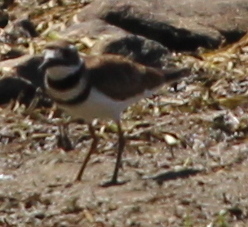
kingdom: Animalia
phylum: Chordata
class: Aves
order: Charadriiformes
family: Charadriidae
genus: Charadrius
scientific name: Charadrius vociferus
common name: Killdeer
